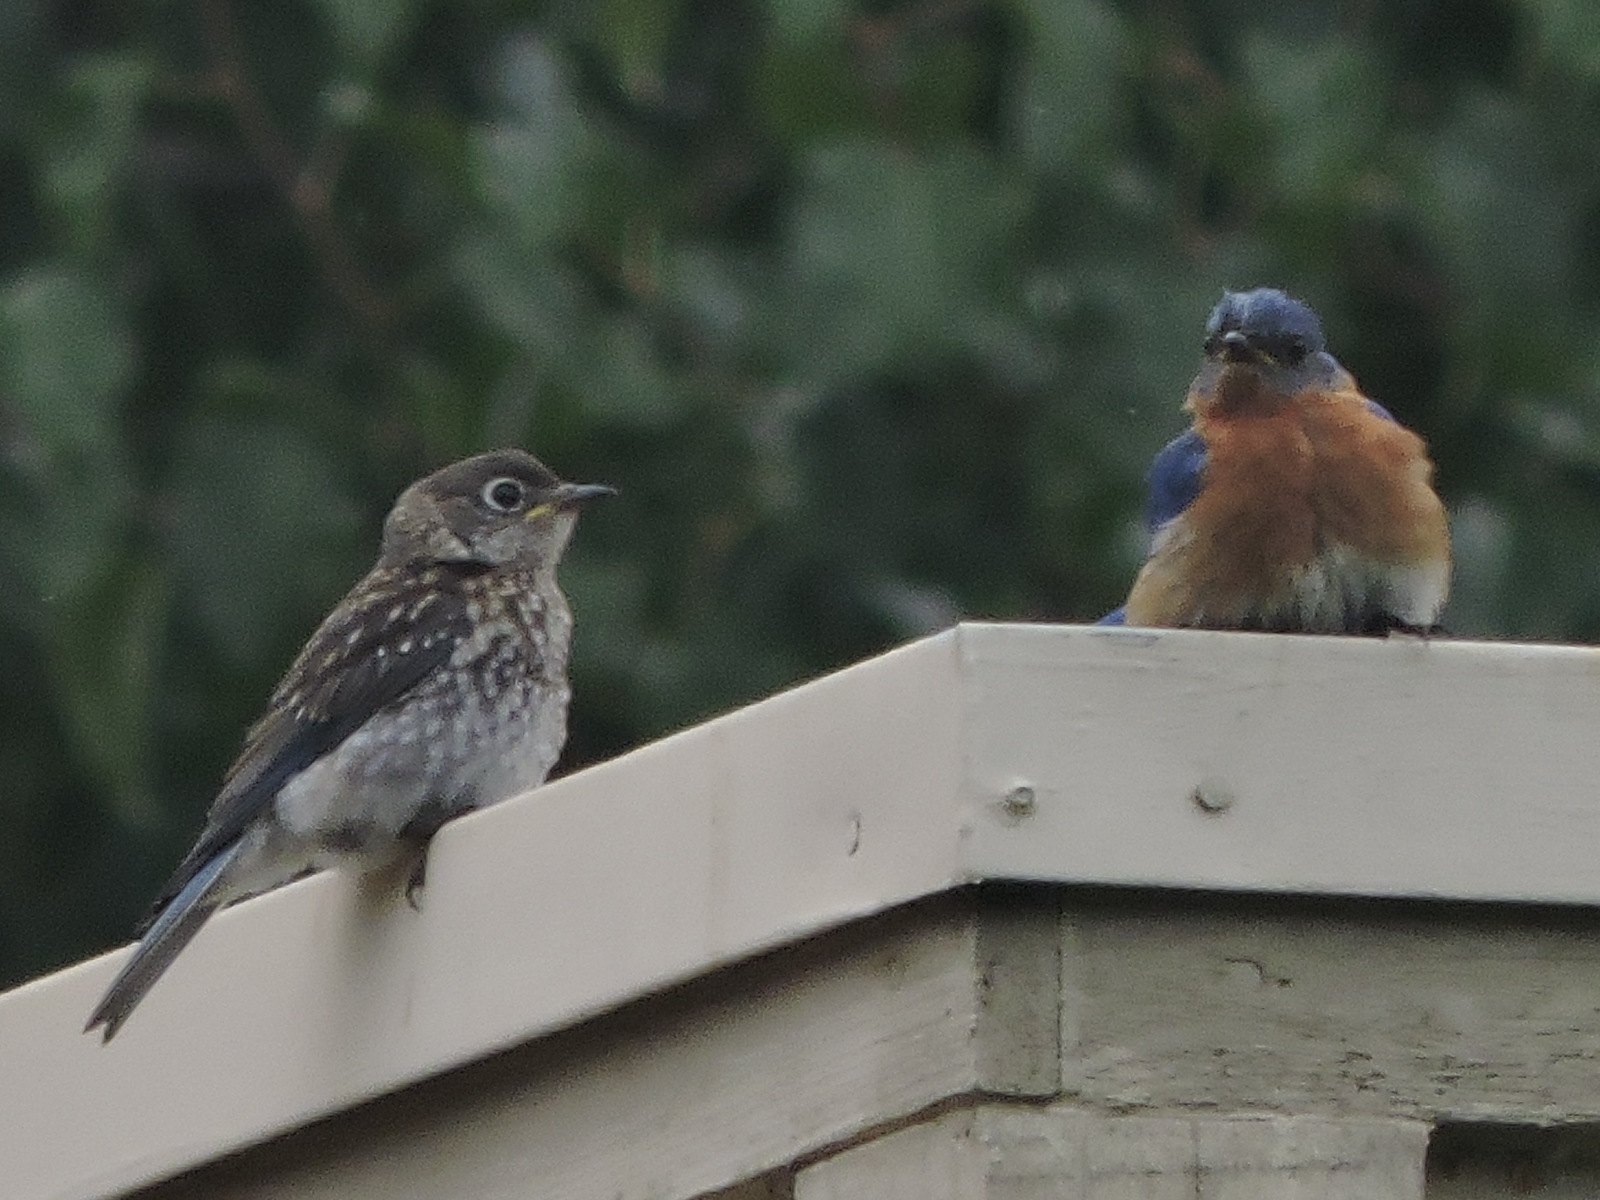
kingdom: Animalia
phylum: Chordata
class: Aves
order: Passeriformes
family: Turdidae
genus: Sialia
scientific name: Sialia sialis
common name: Eastern bluebird
